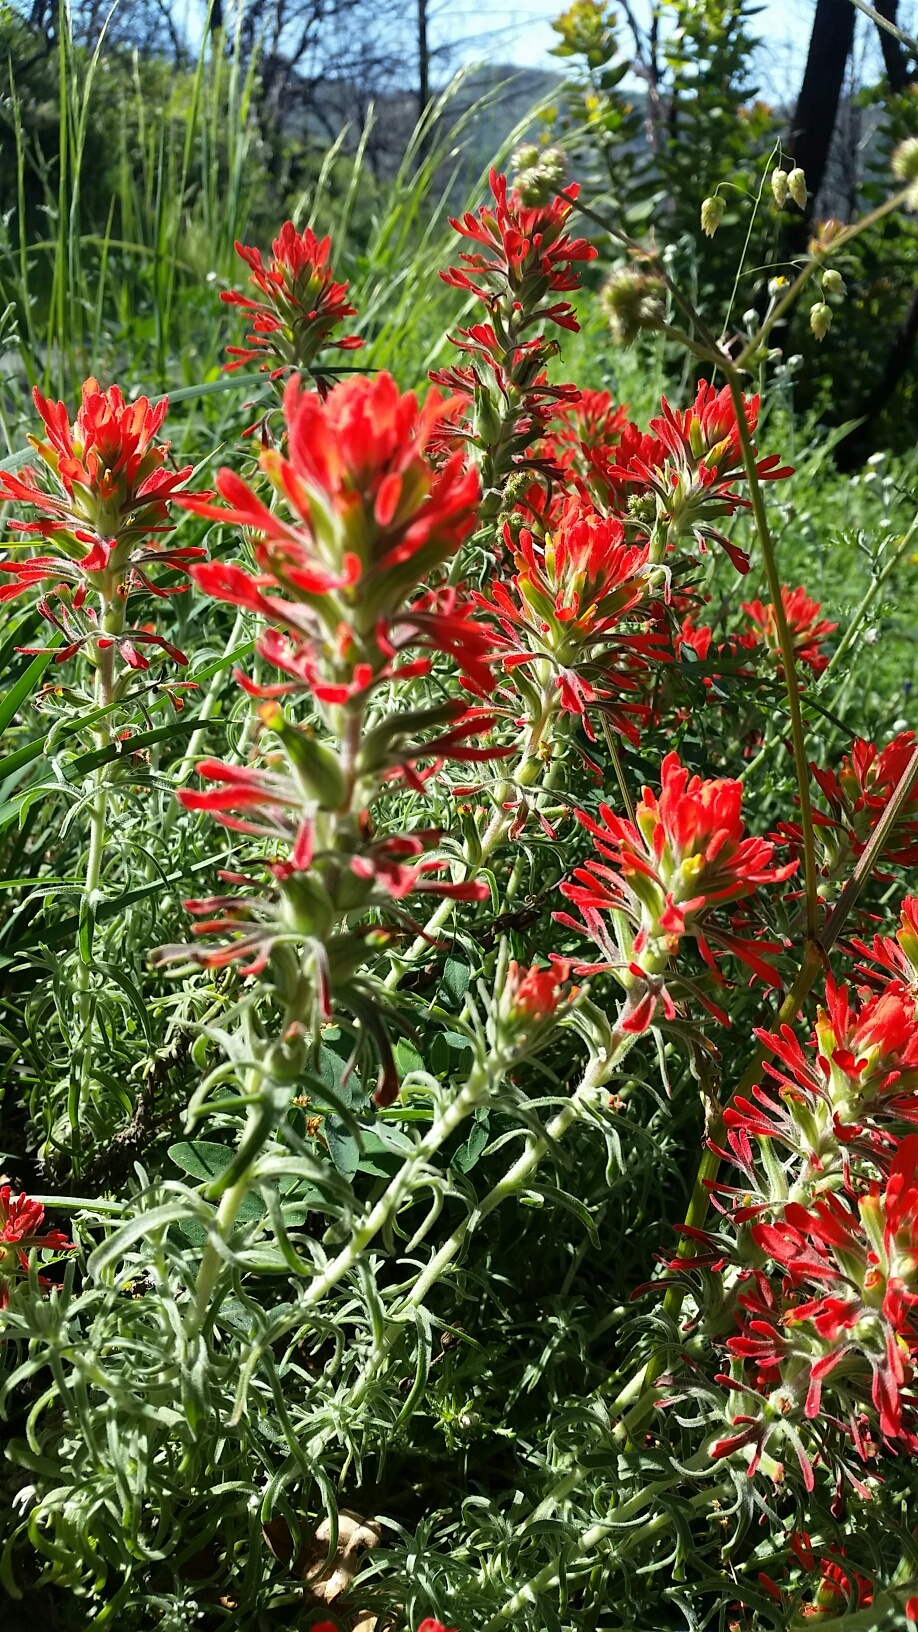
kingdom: Plantae
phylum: Tracheophyta
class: Magnoliopsida
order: Lamiales
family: Orobanchaceae
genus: Castilleja
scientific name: Castilleja foliolosa
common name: Woolly indian paintbrush
